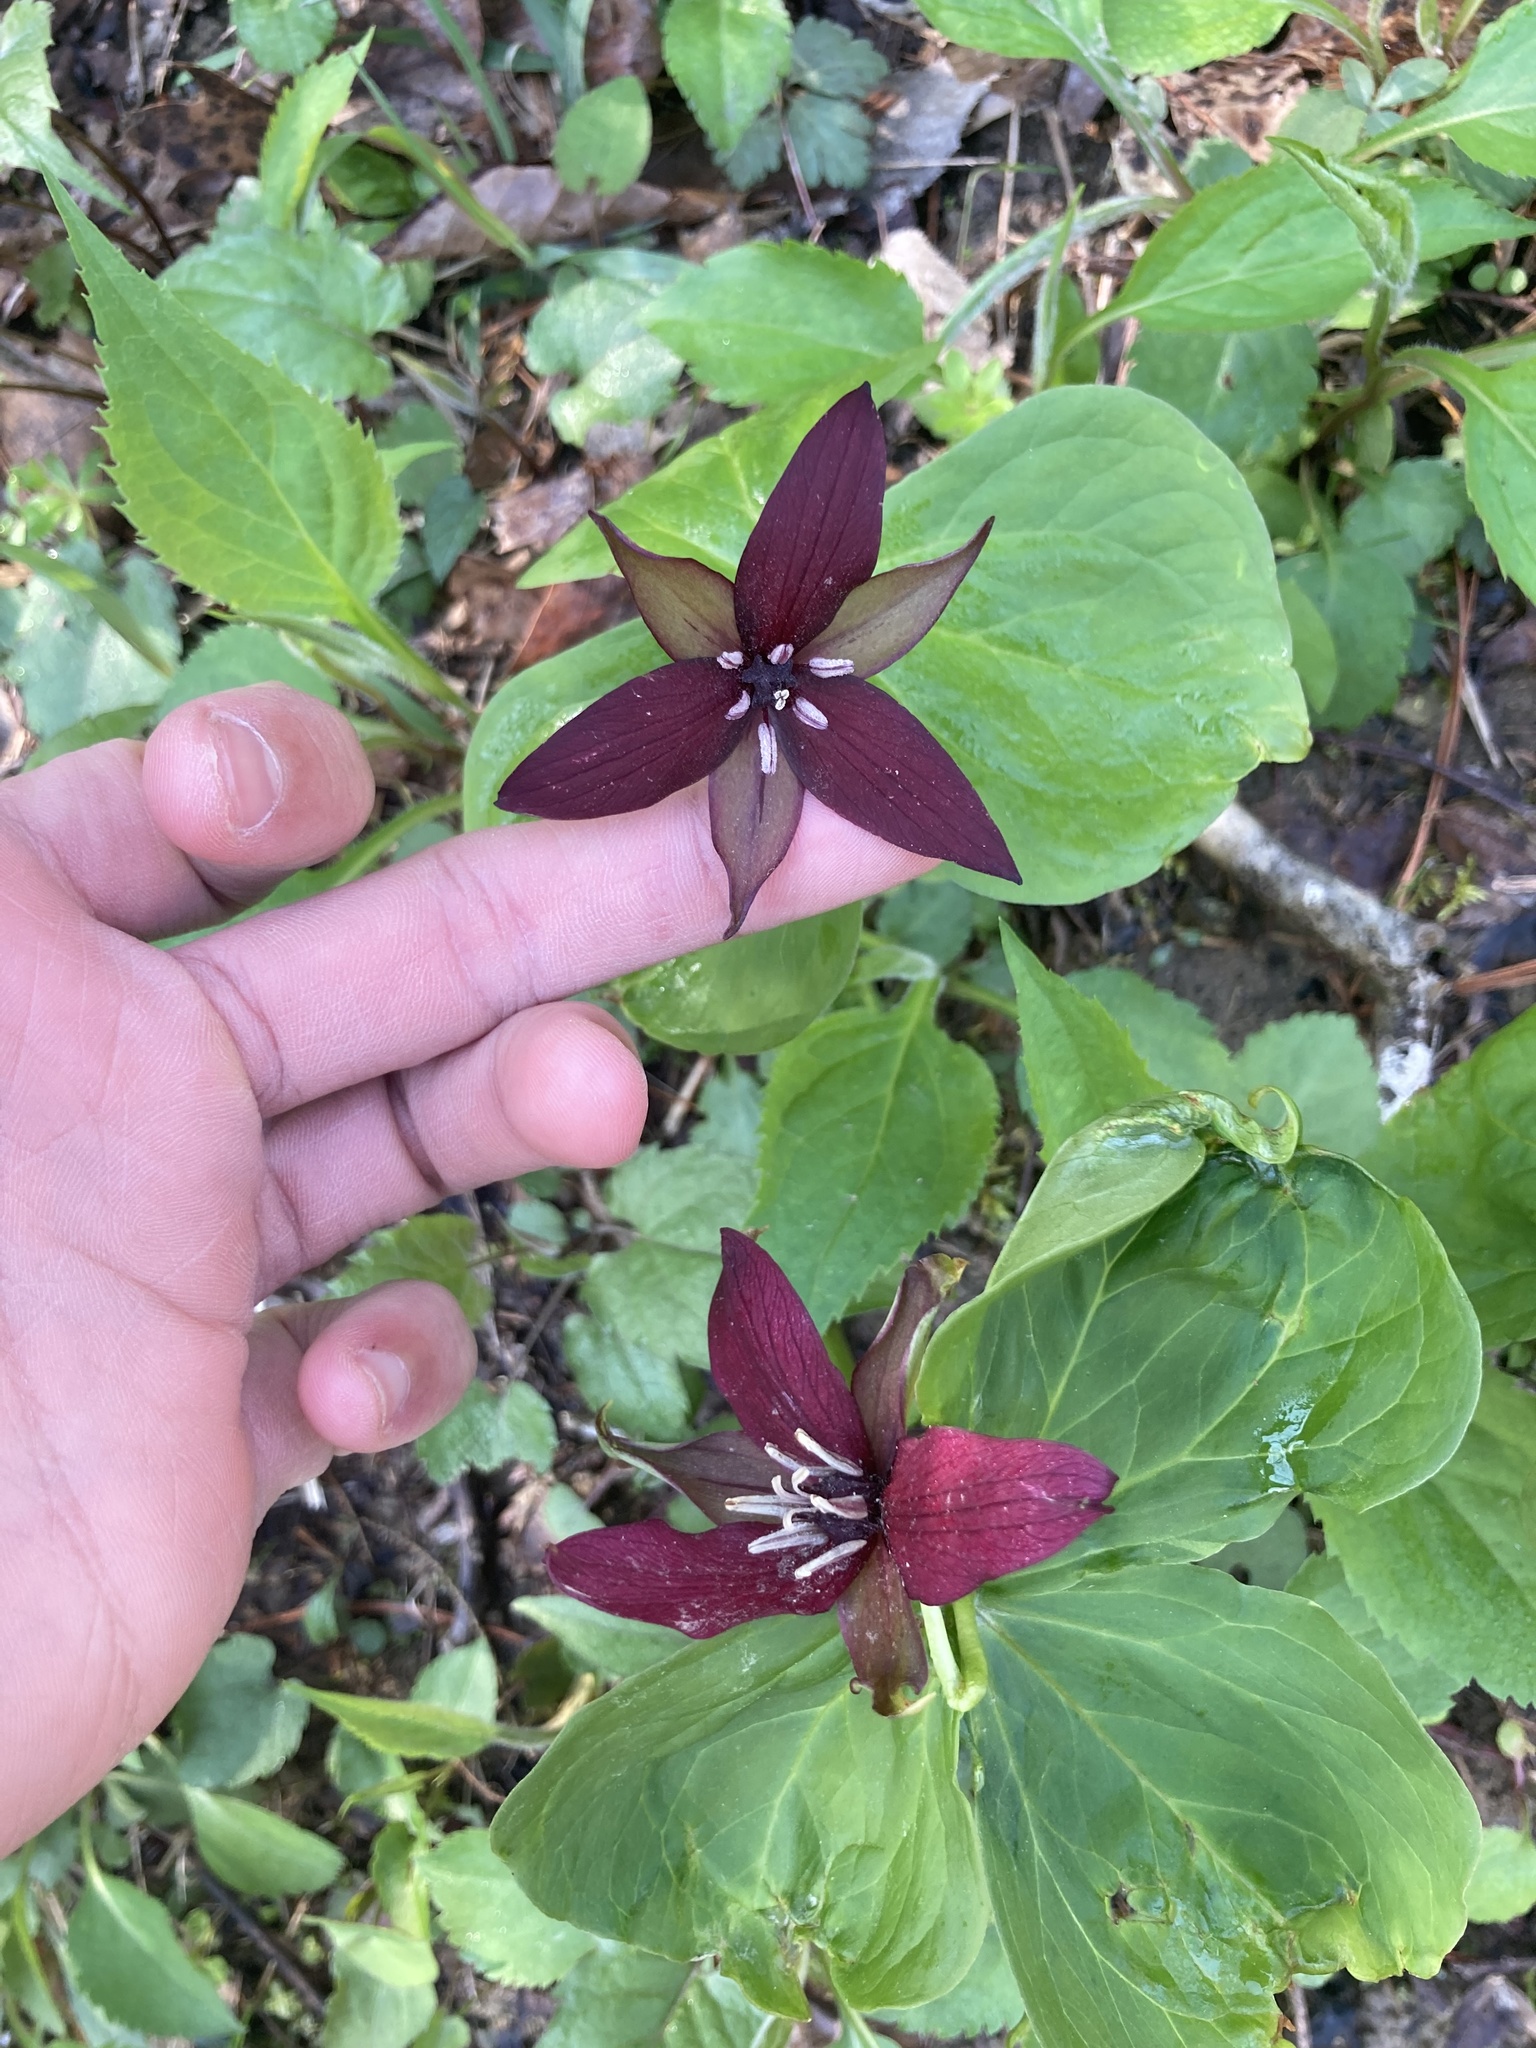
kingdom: Plantae
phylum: Tracheophyta
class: Liliopsida
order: Liliales
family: Melanthiaceae
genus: Trillium
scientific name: Trillium erectum
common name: Purple trillium
